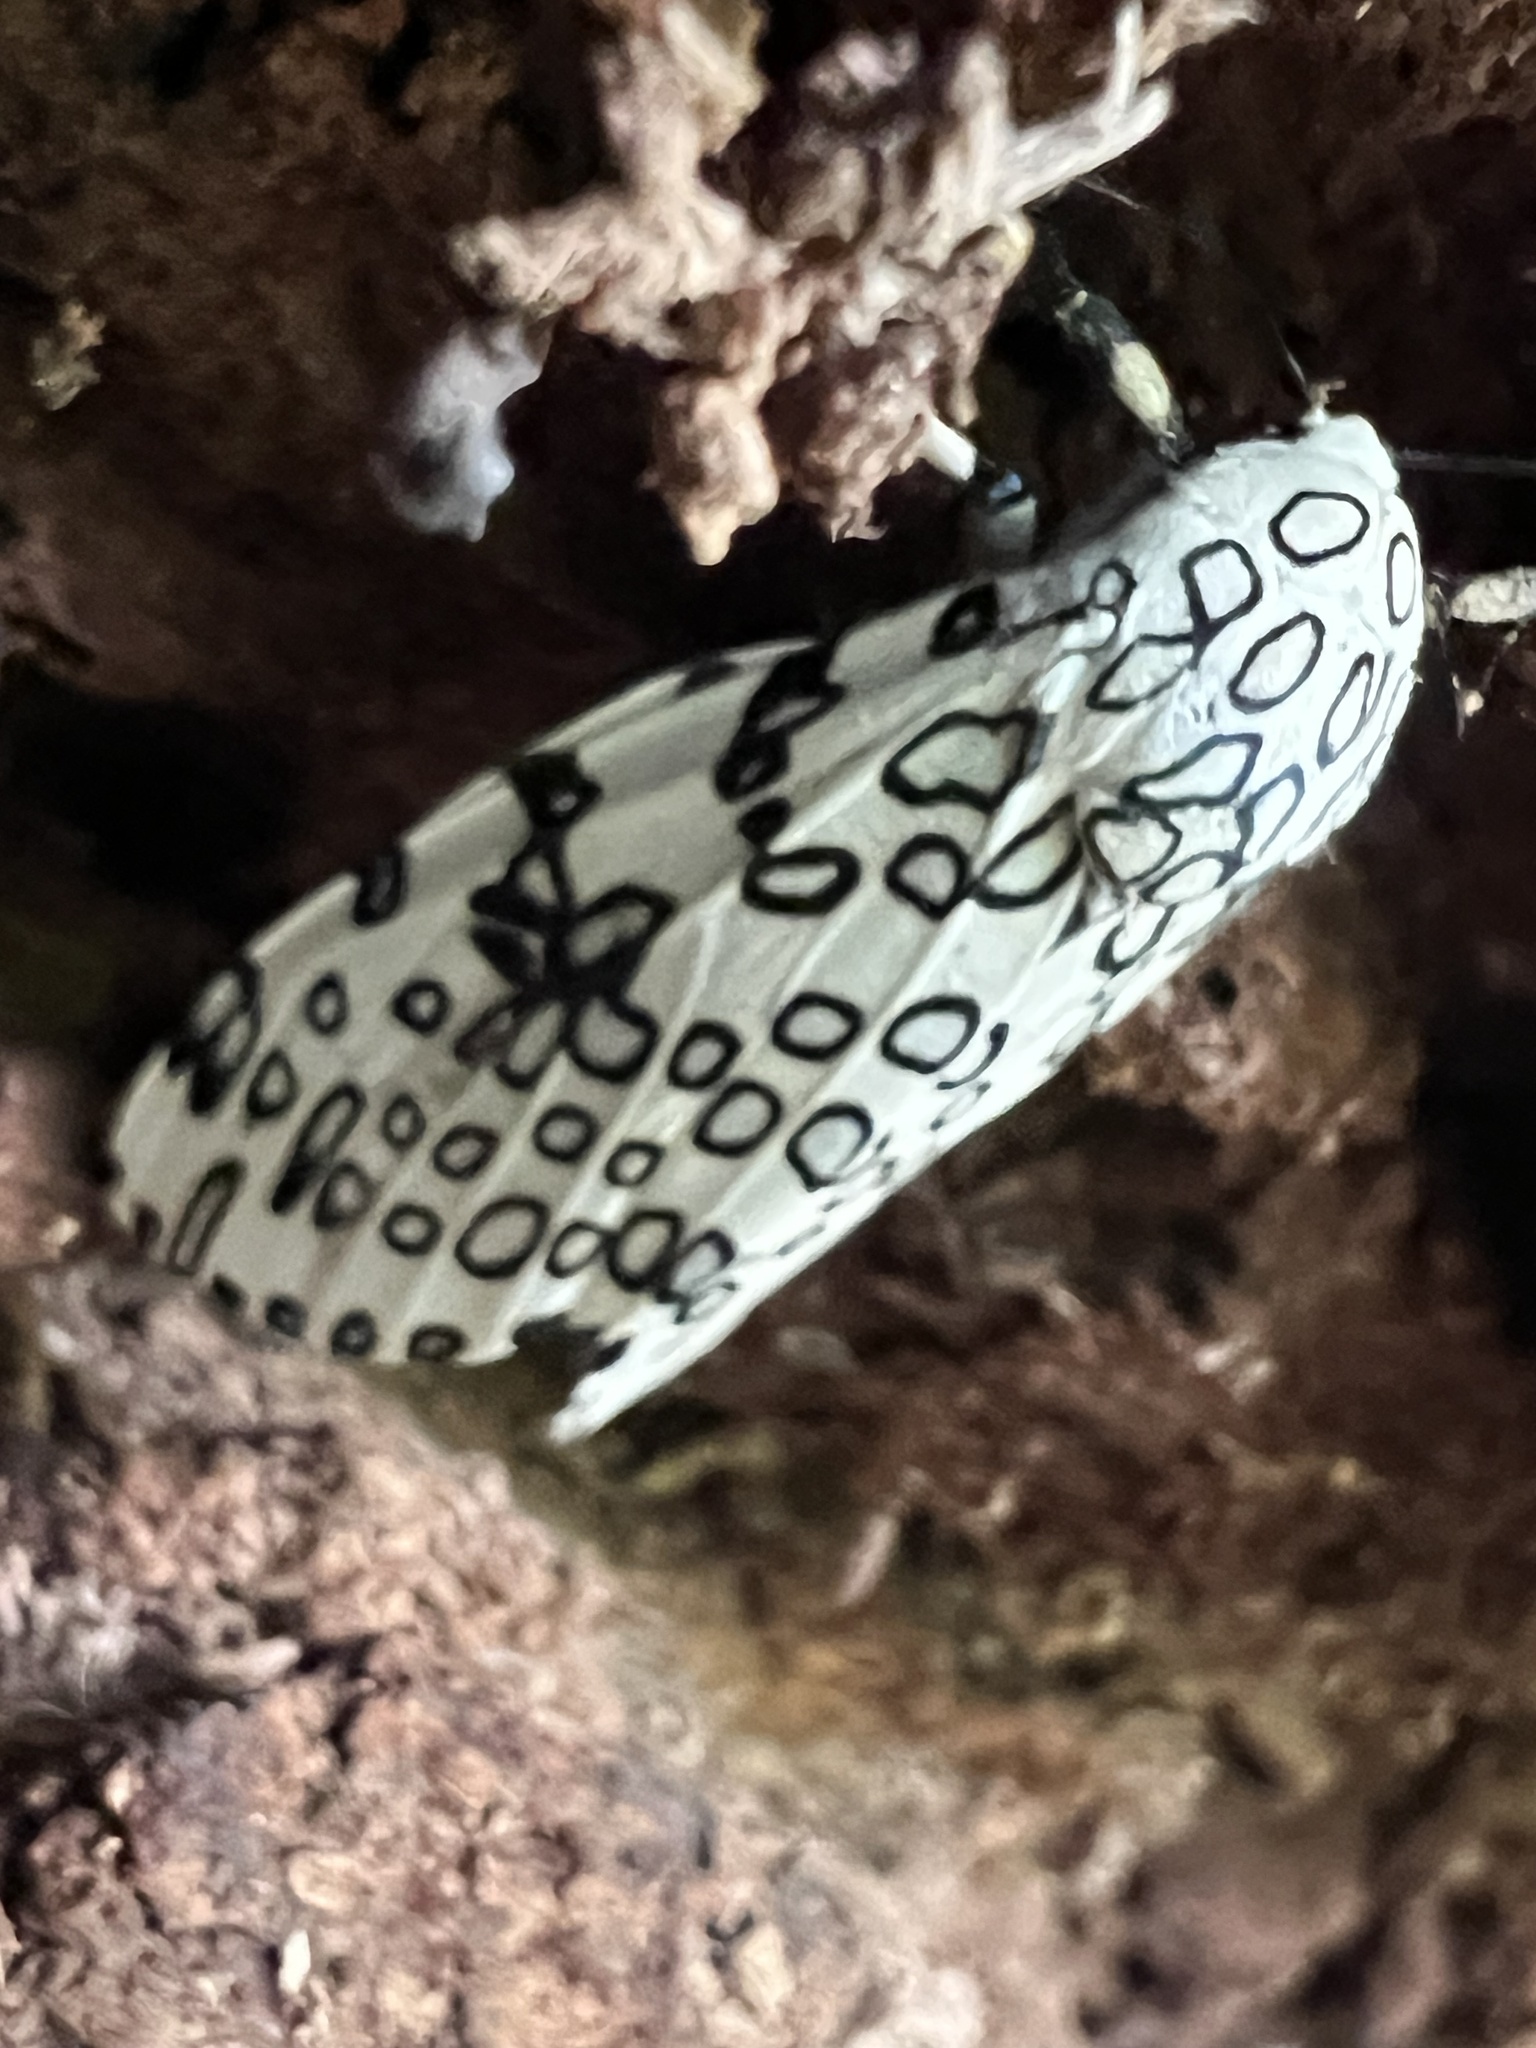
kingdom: Animalia
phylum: Arthropoda
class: Insecta
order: Lepidoptera
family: Erebidae
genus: Hypercompe
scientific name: Hypercompe scribonia
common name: Giant leopard moth
